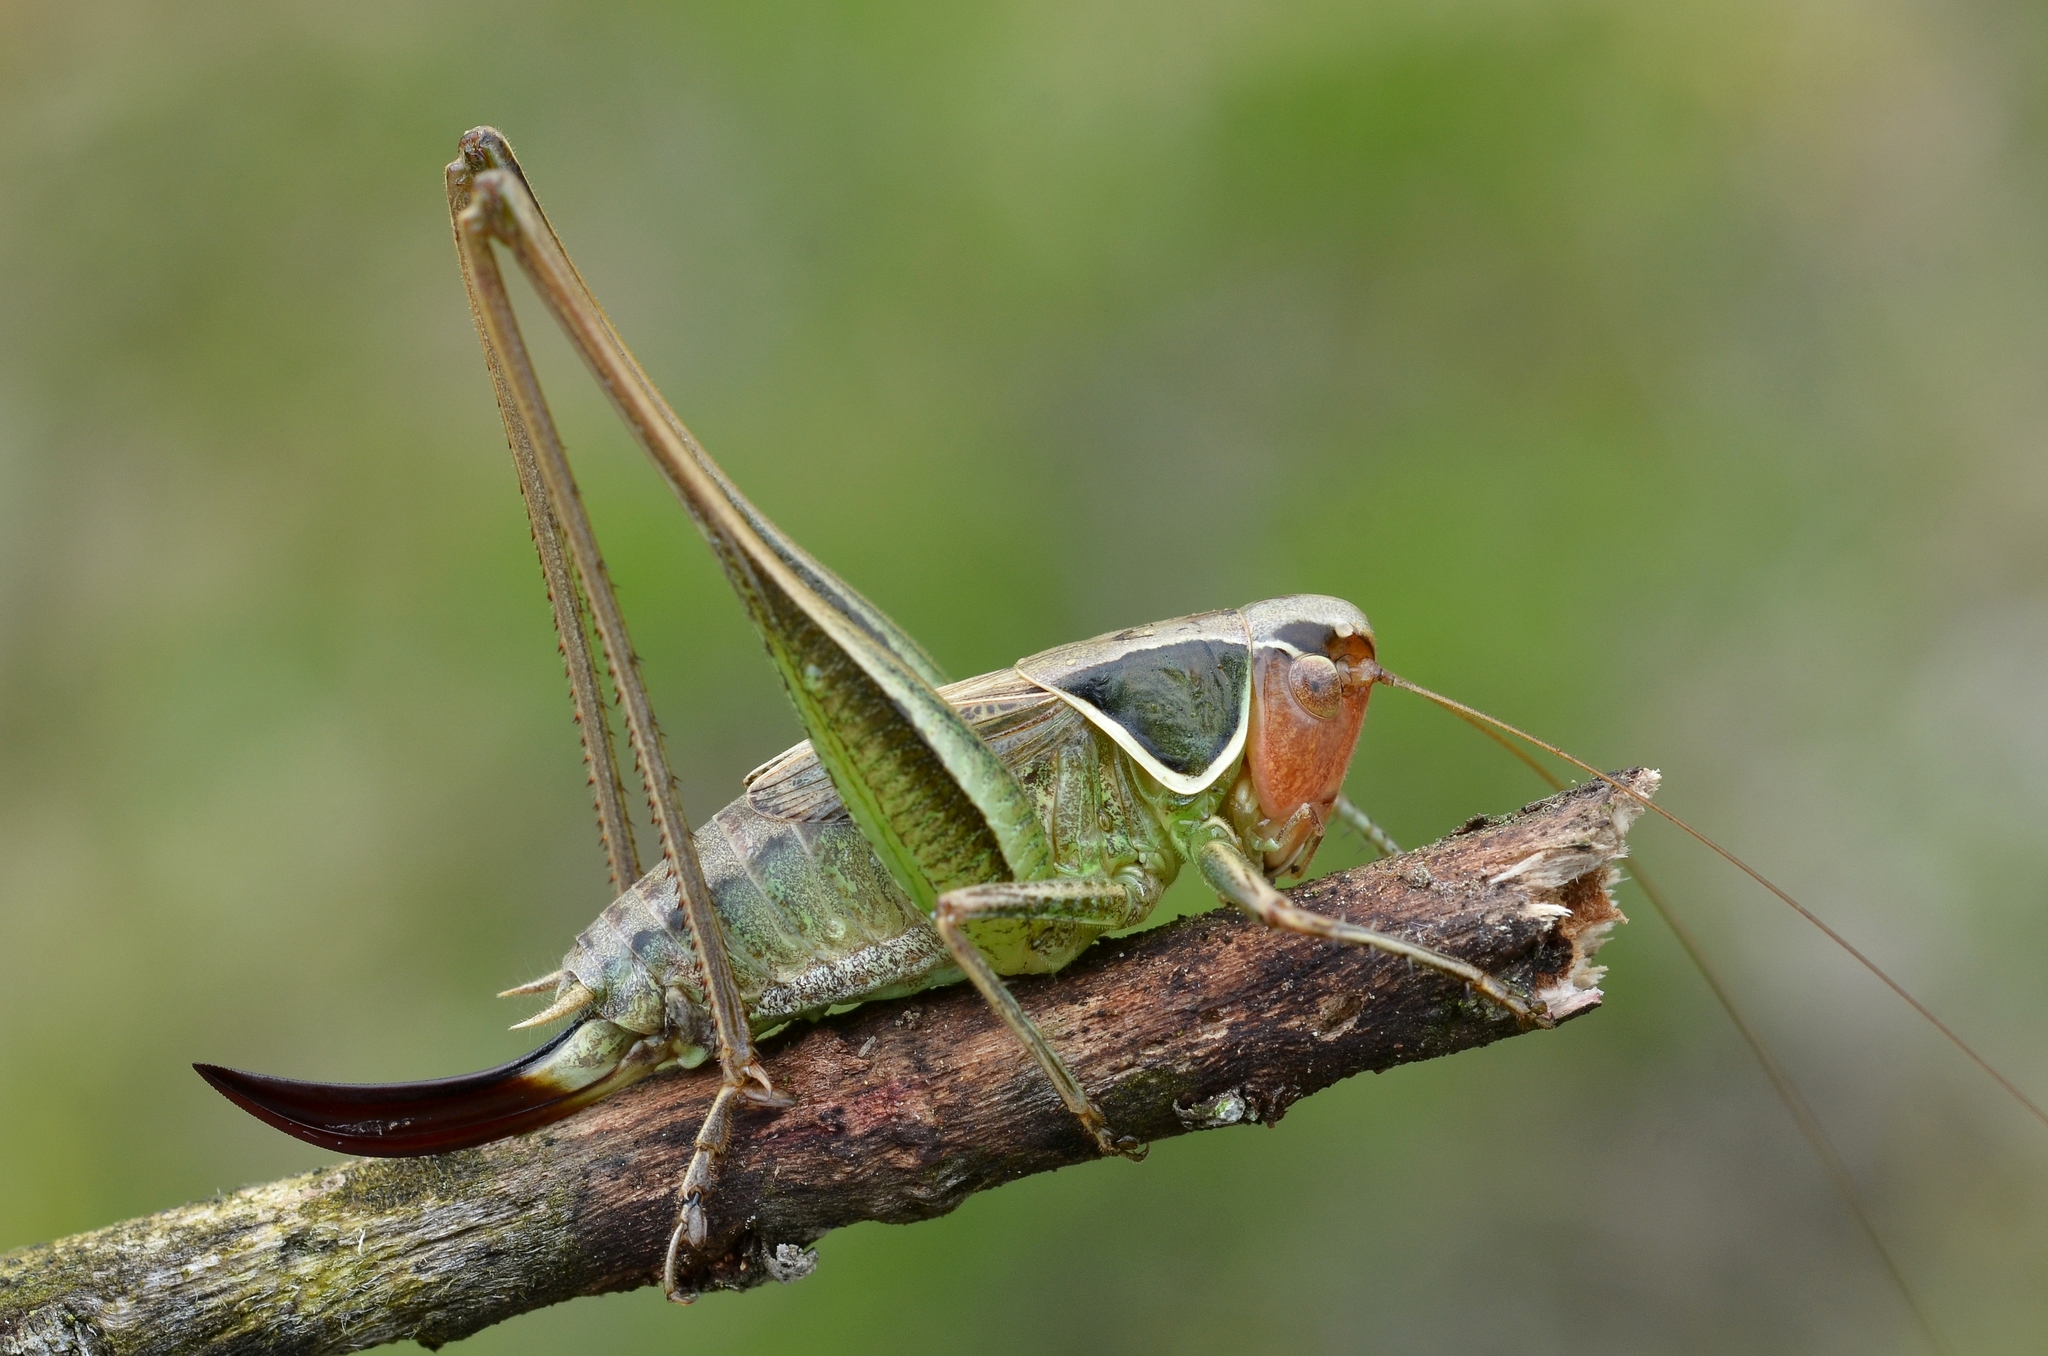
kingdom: Animalia
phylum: Arthropoda
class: Insecta
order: Orthoptera
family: Tettigoniidae
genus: Sepiana
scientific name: Sepiana sepium
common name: Sepia bush-cricket
